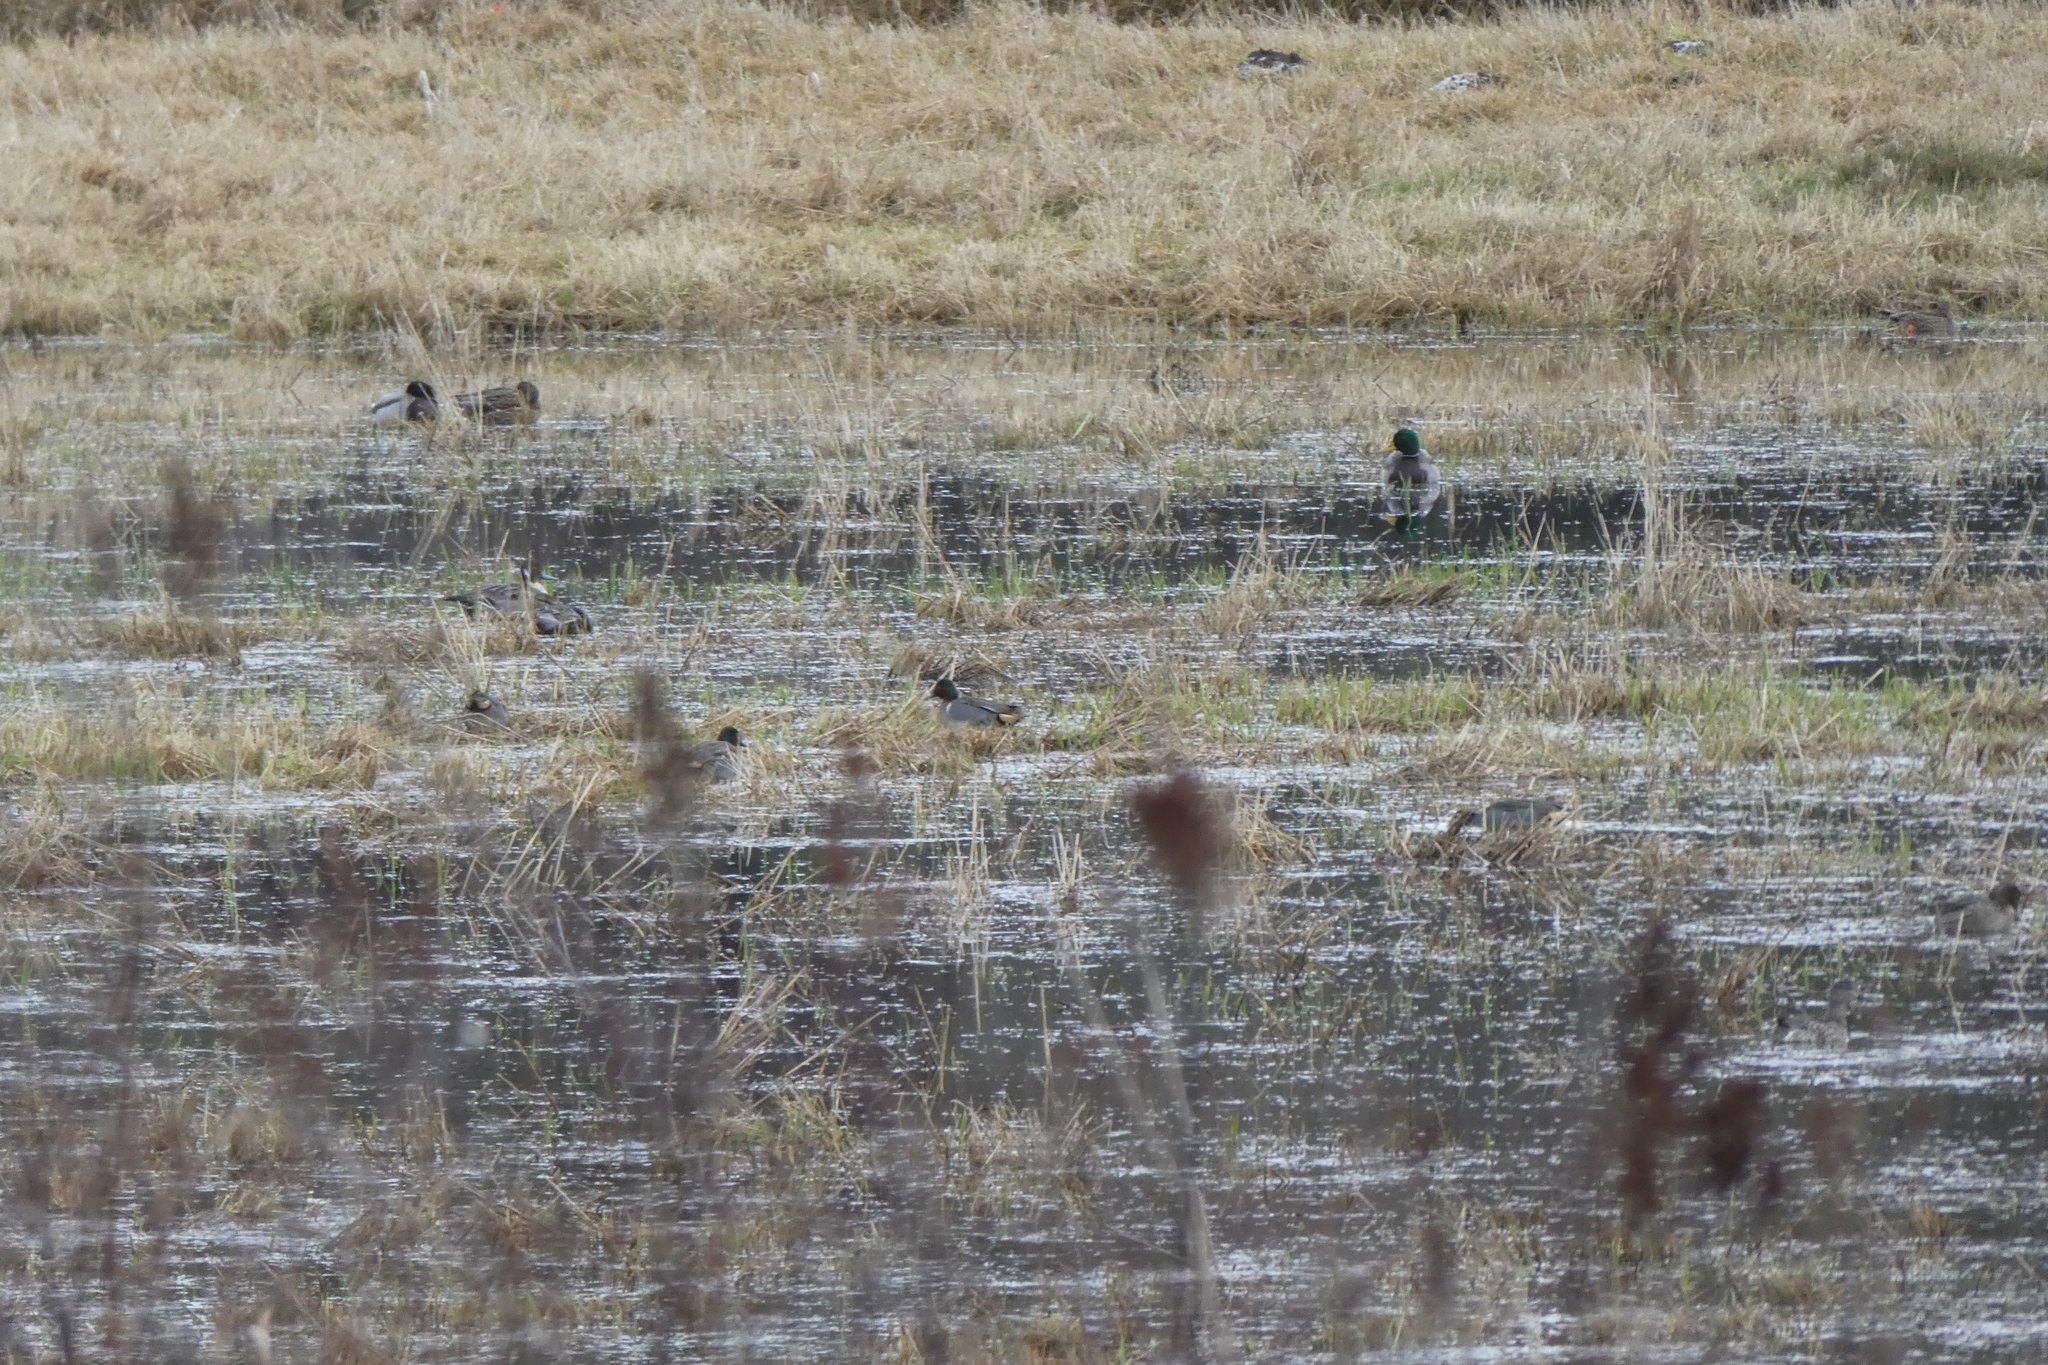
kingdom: Animalia
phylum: Chordata
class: Aves
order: Anseriformes
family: Anatidae
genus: Anas
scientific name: Anas acuta
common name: Northern pintail
